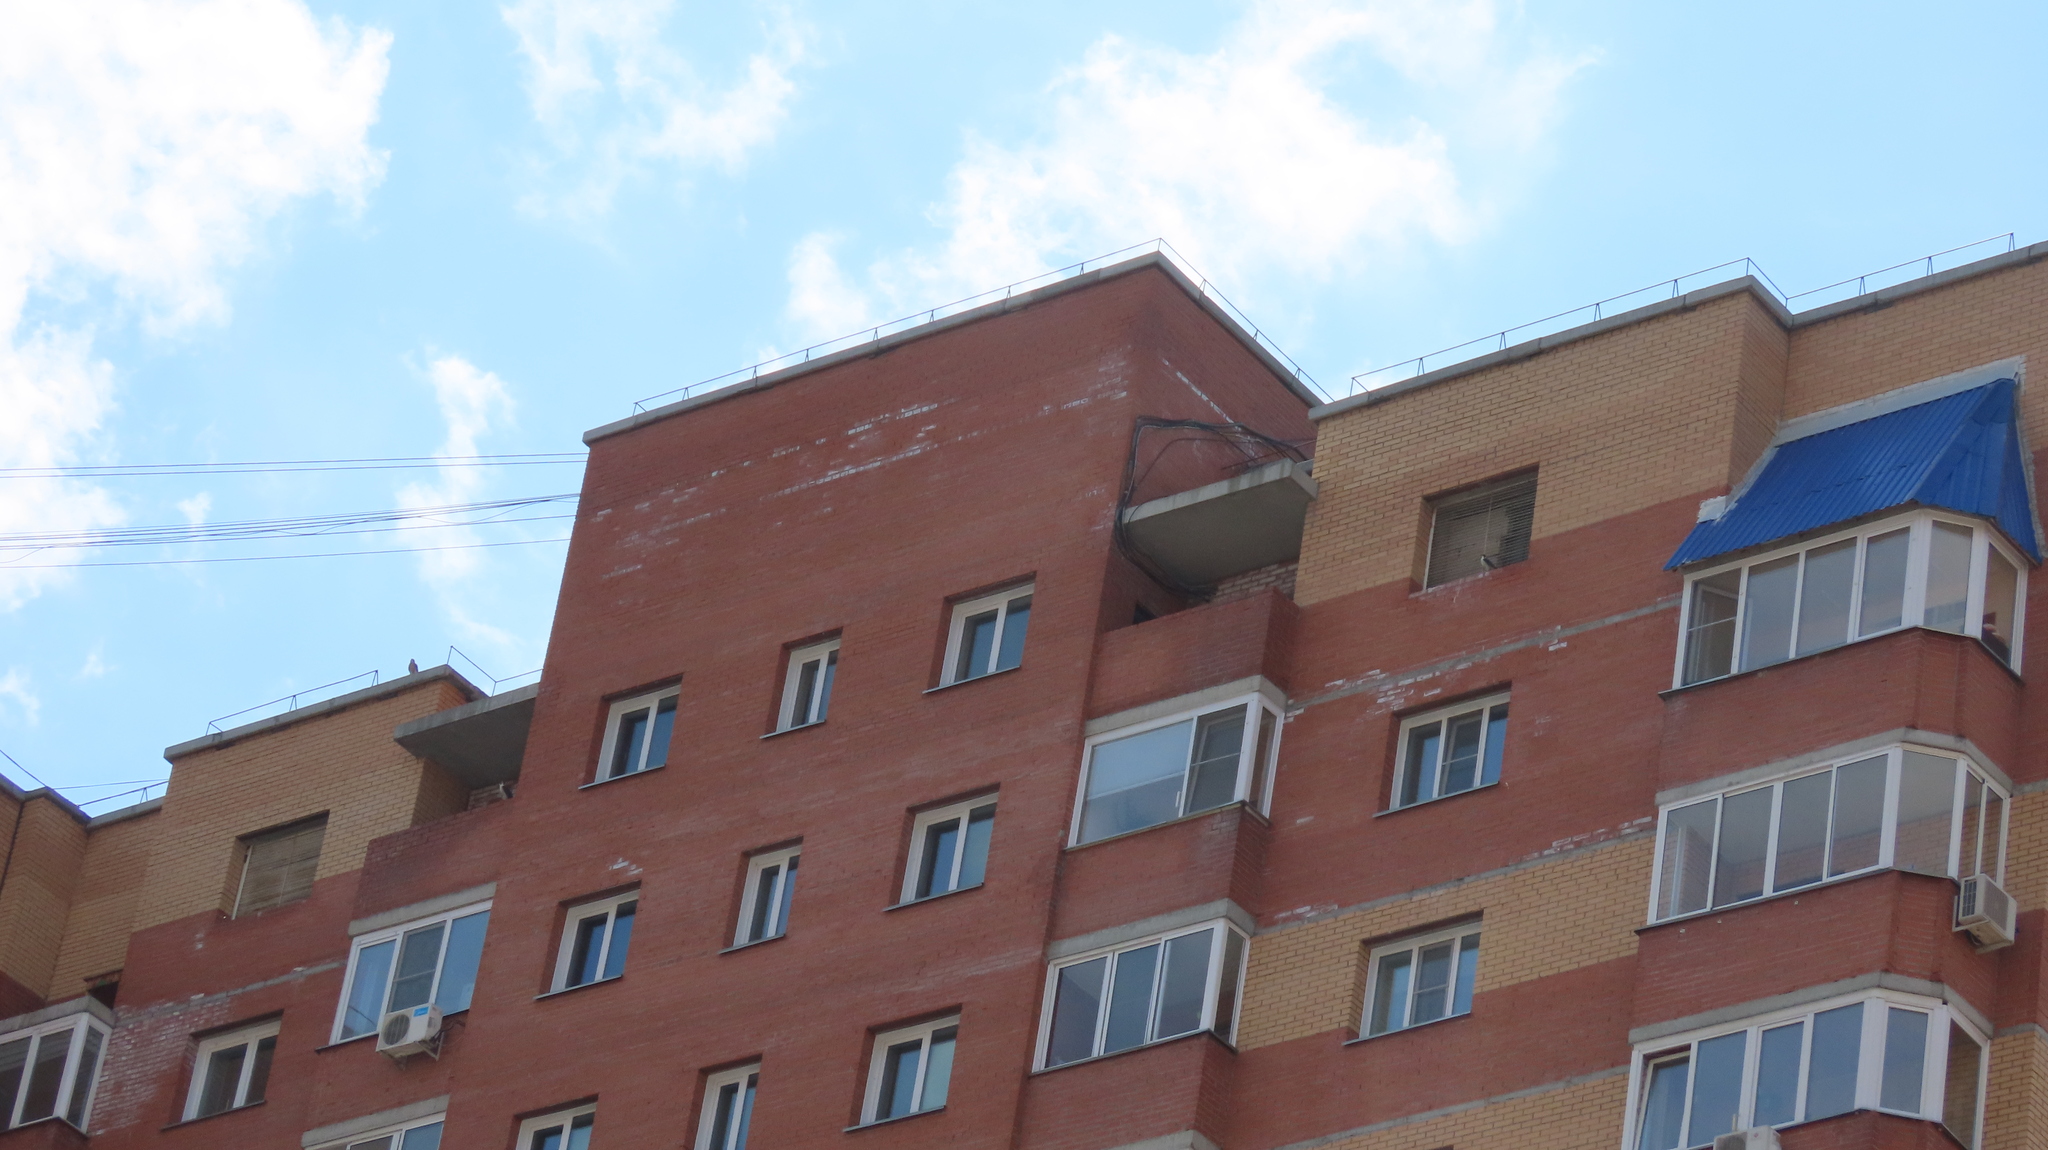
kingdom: Animalia
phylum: Chordata
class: Aves
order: Falconiformes
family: Falconidae
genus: Falco
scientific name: Falco peregrinus
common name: Peregrine falcon
